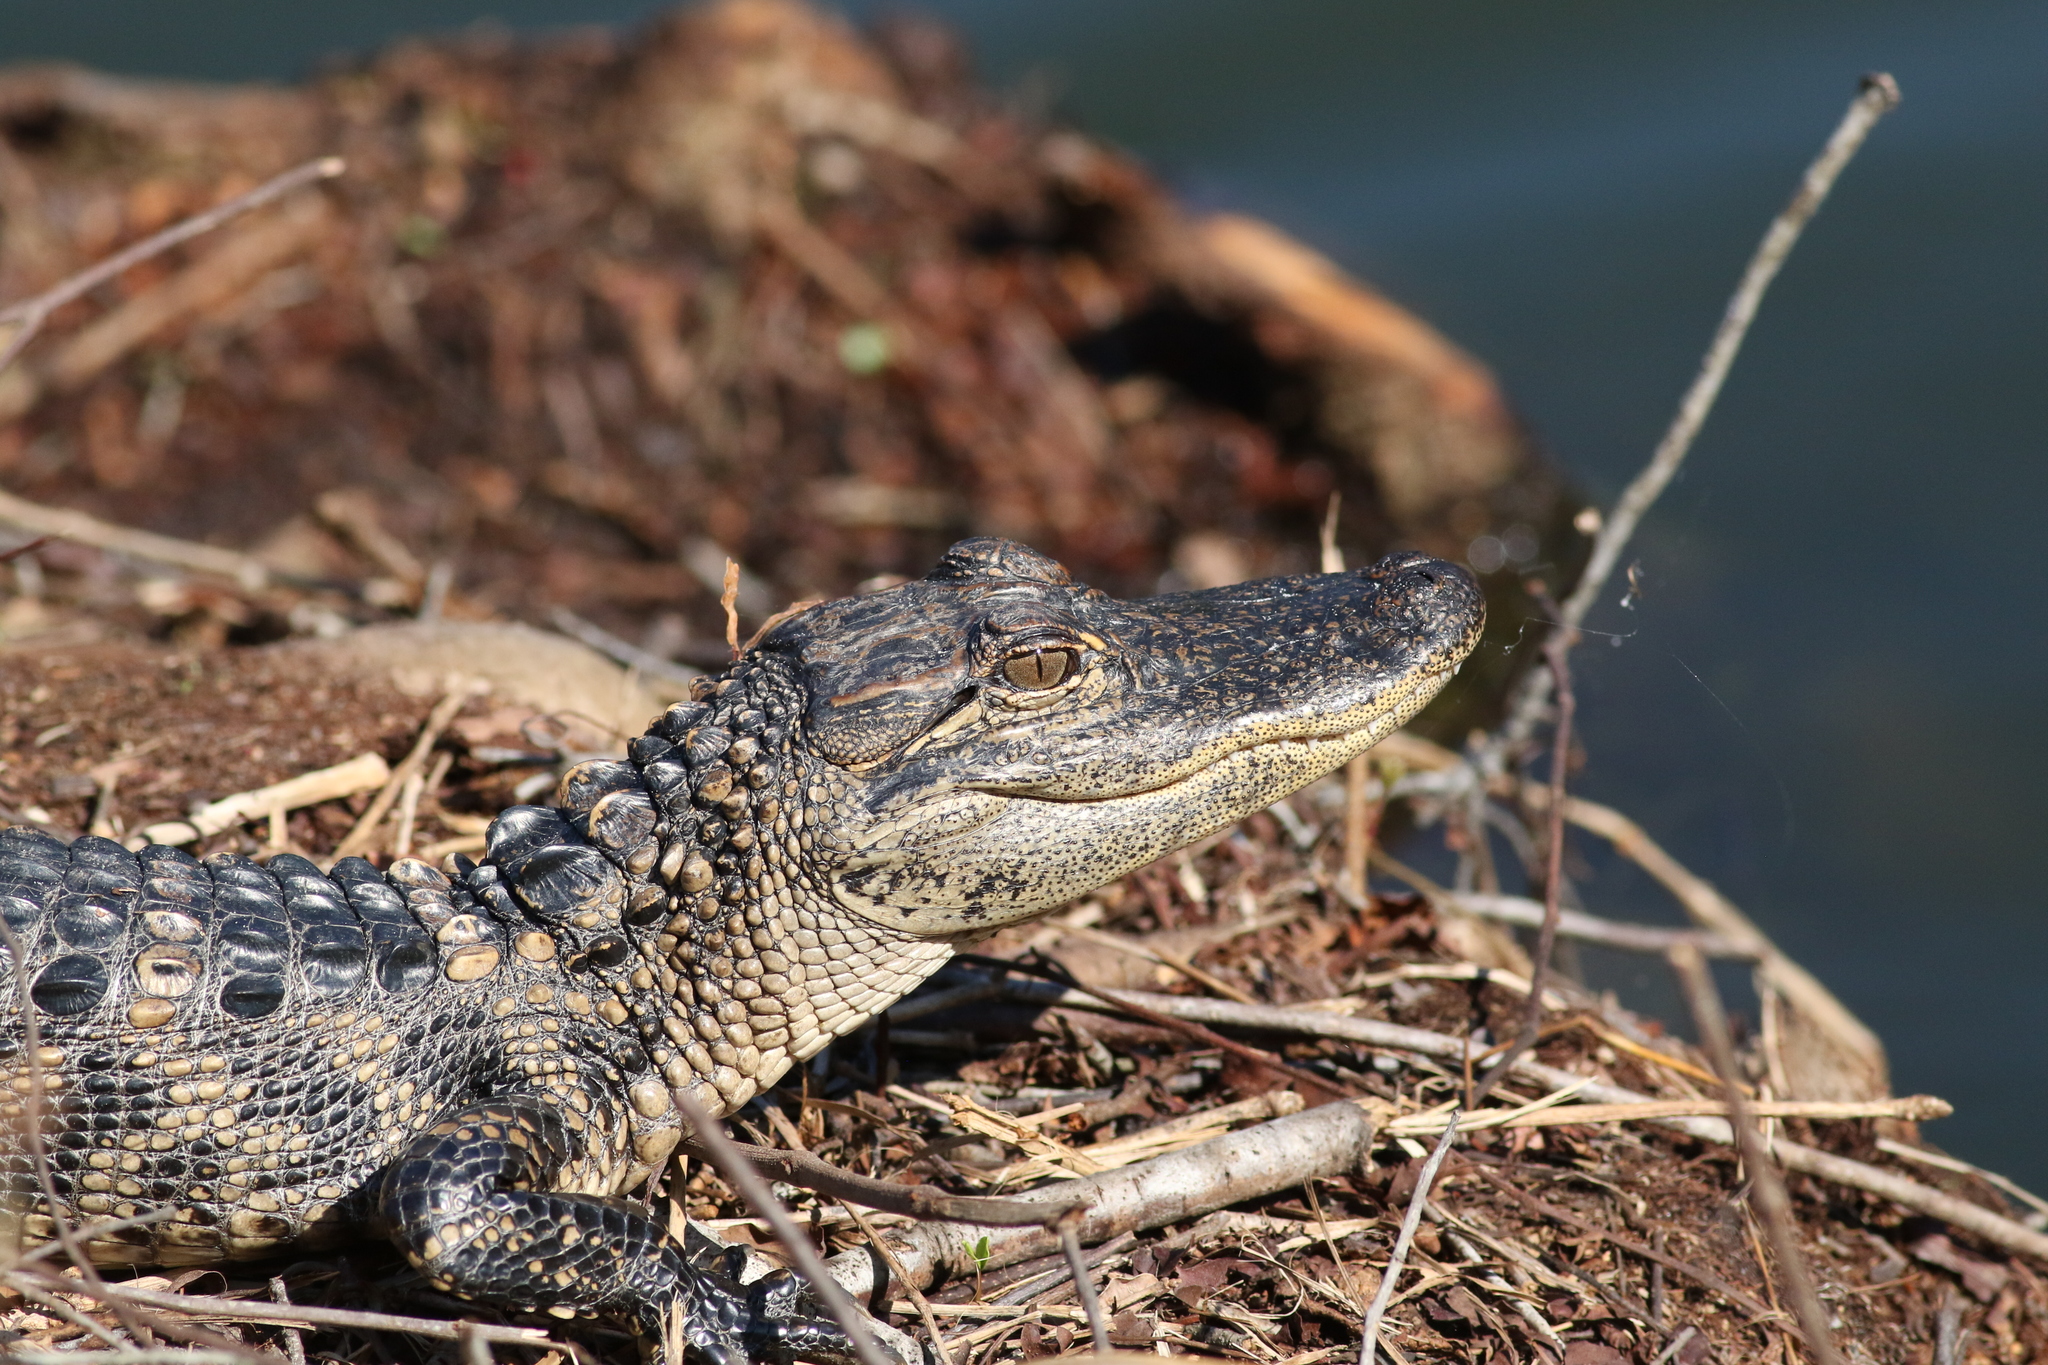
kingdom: Animalia
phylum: Chordata
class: Crocodylia
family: Alligatoridae
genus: Alligator
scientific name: Alligator mississippiensis
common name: American alligator
